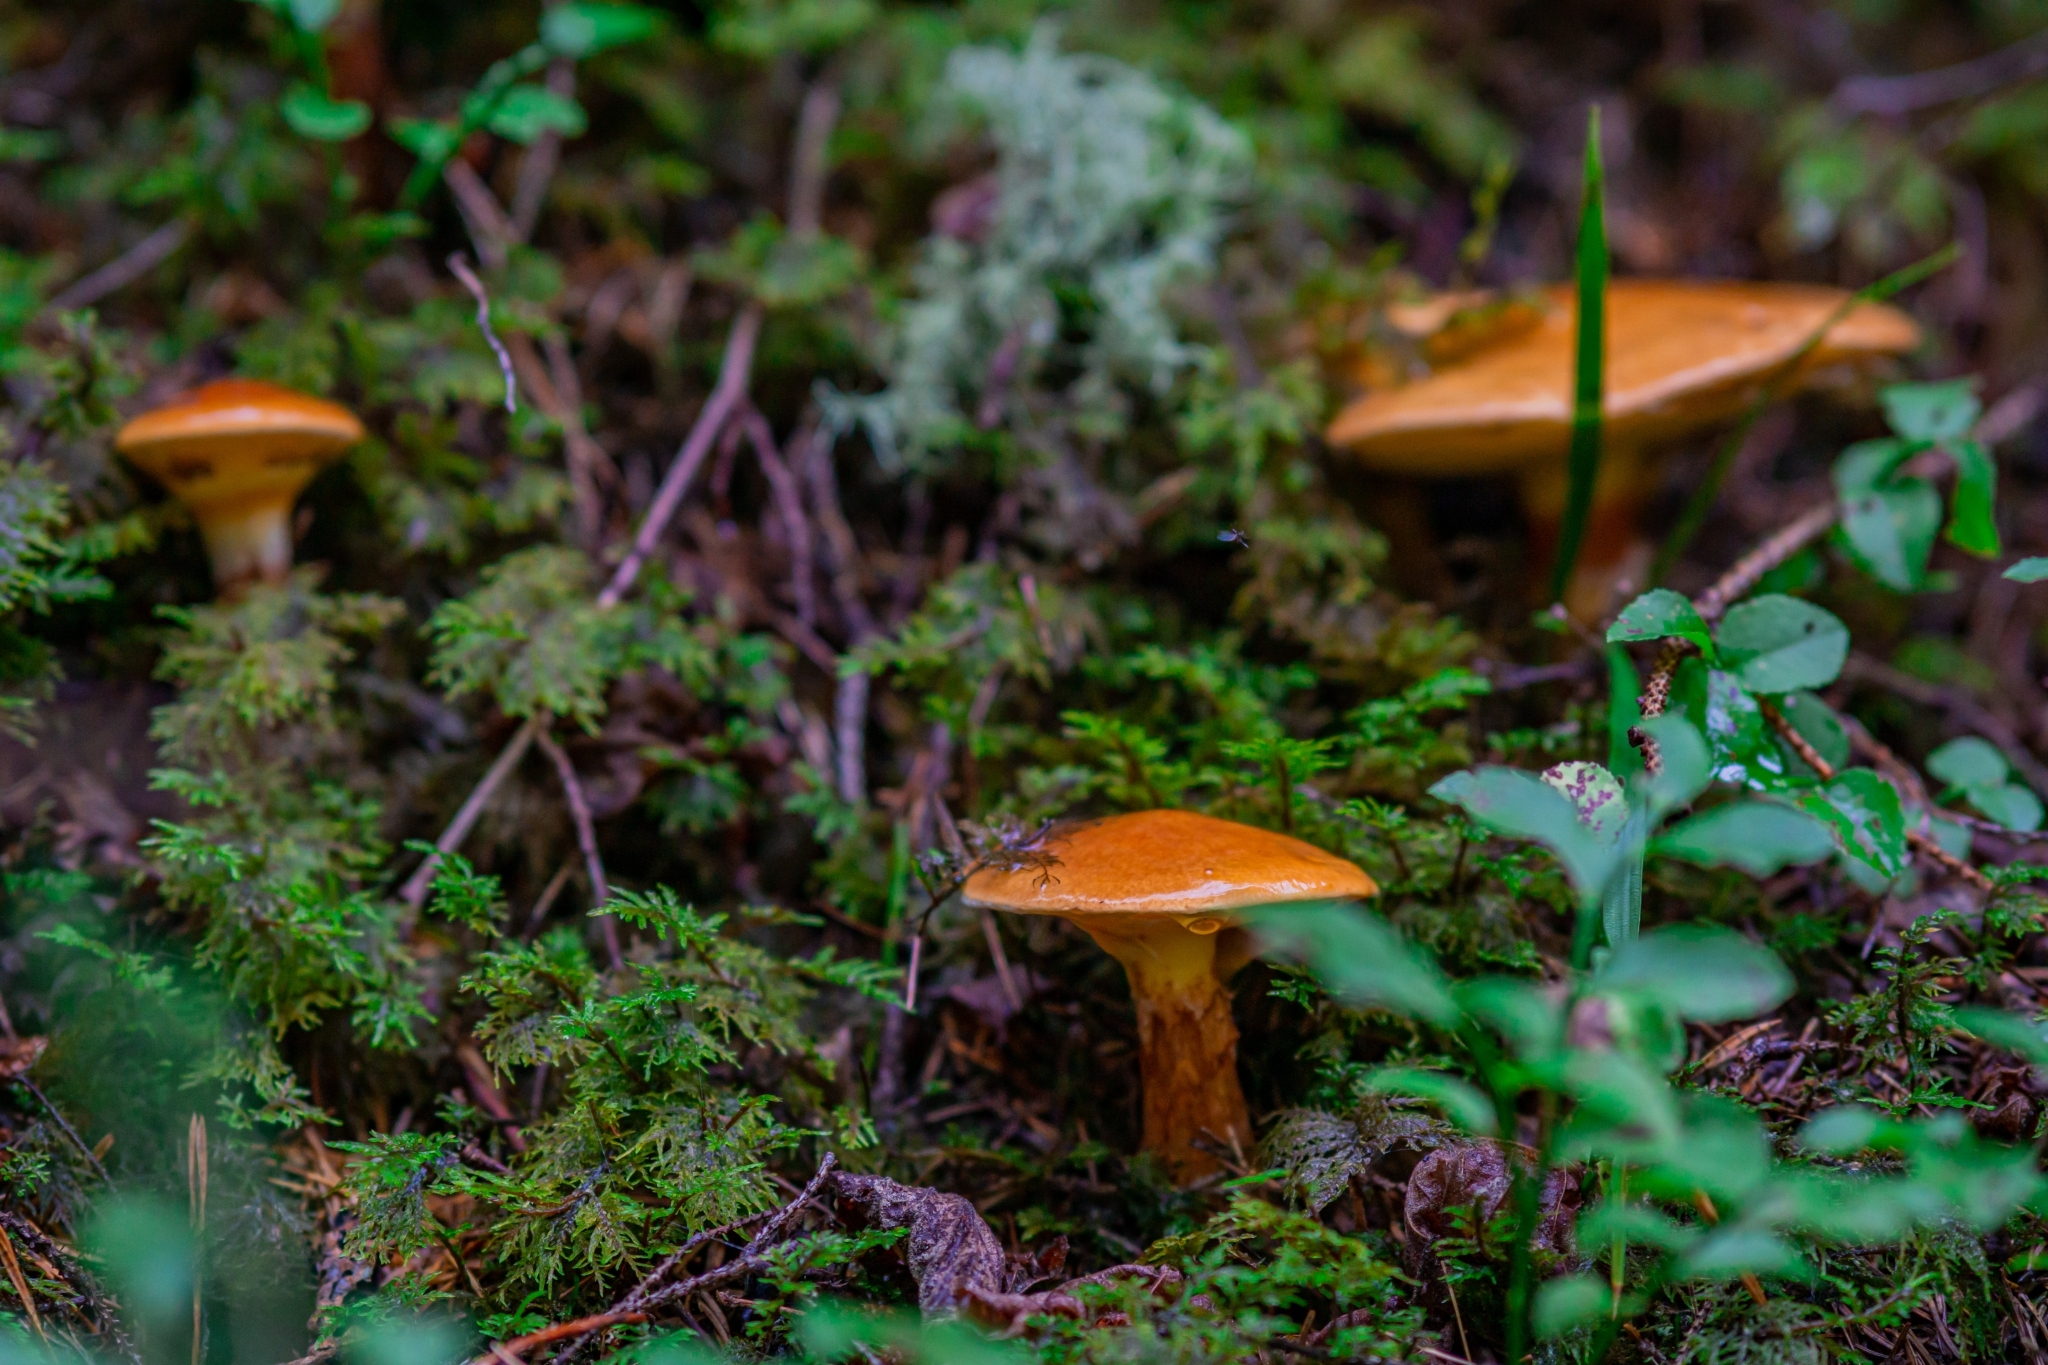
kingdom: Fungi
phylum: Basidiomycota
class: Agaricomycetes
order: Boletales
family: Suillaceae
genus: Suillus
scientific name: Suillus grevillei
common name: Larch bolete
